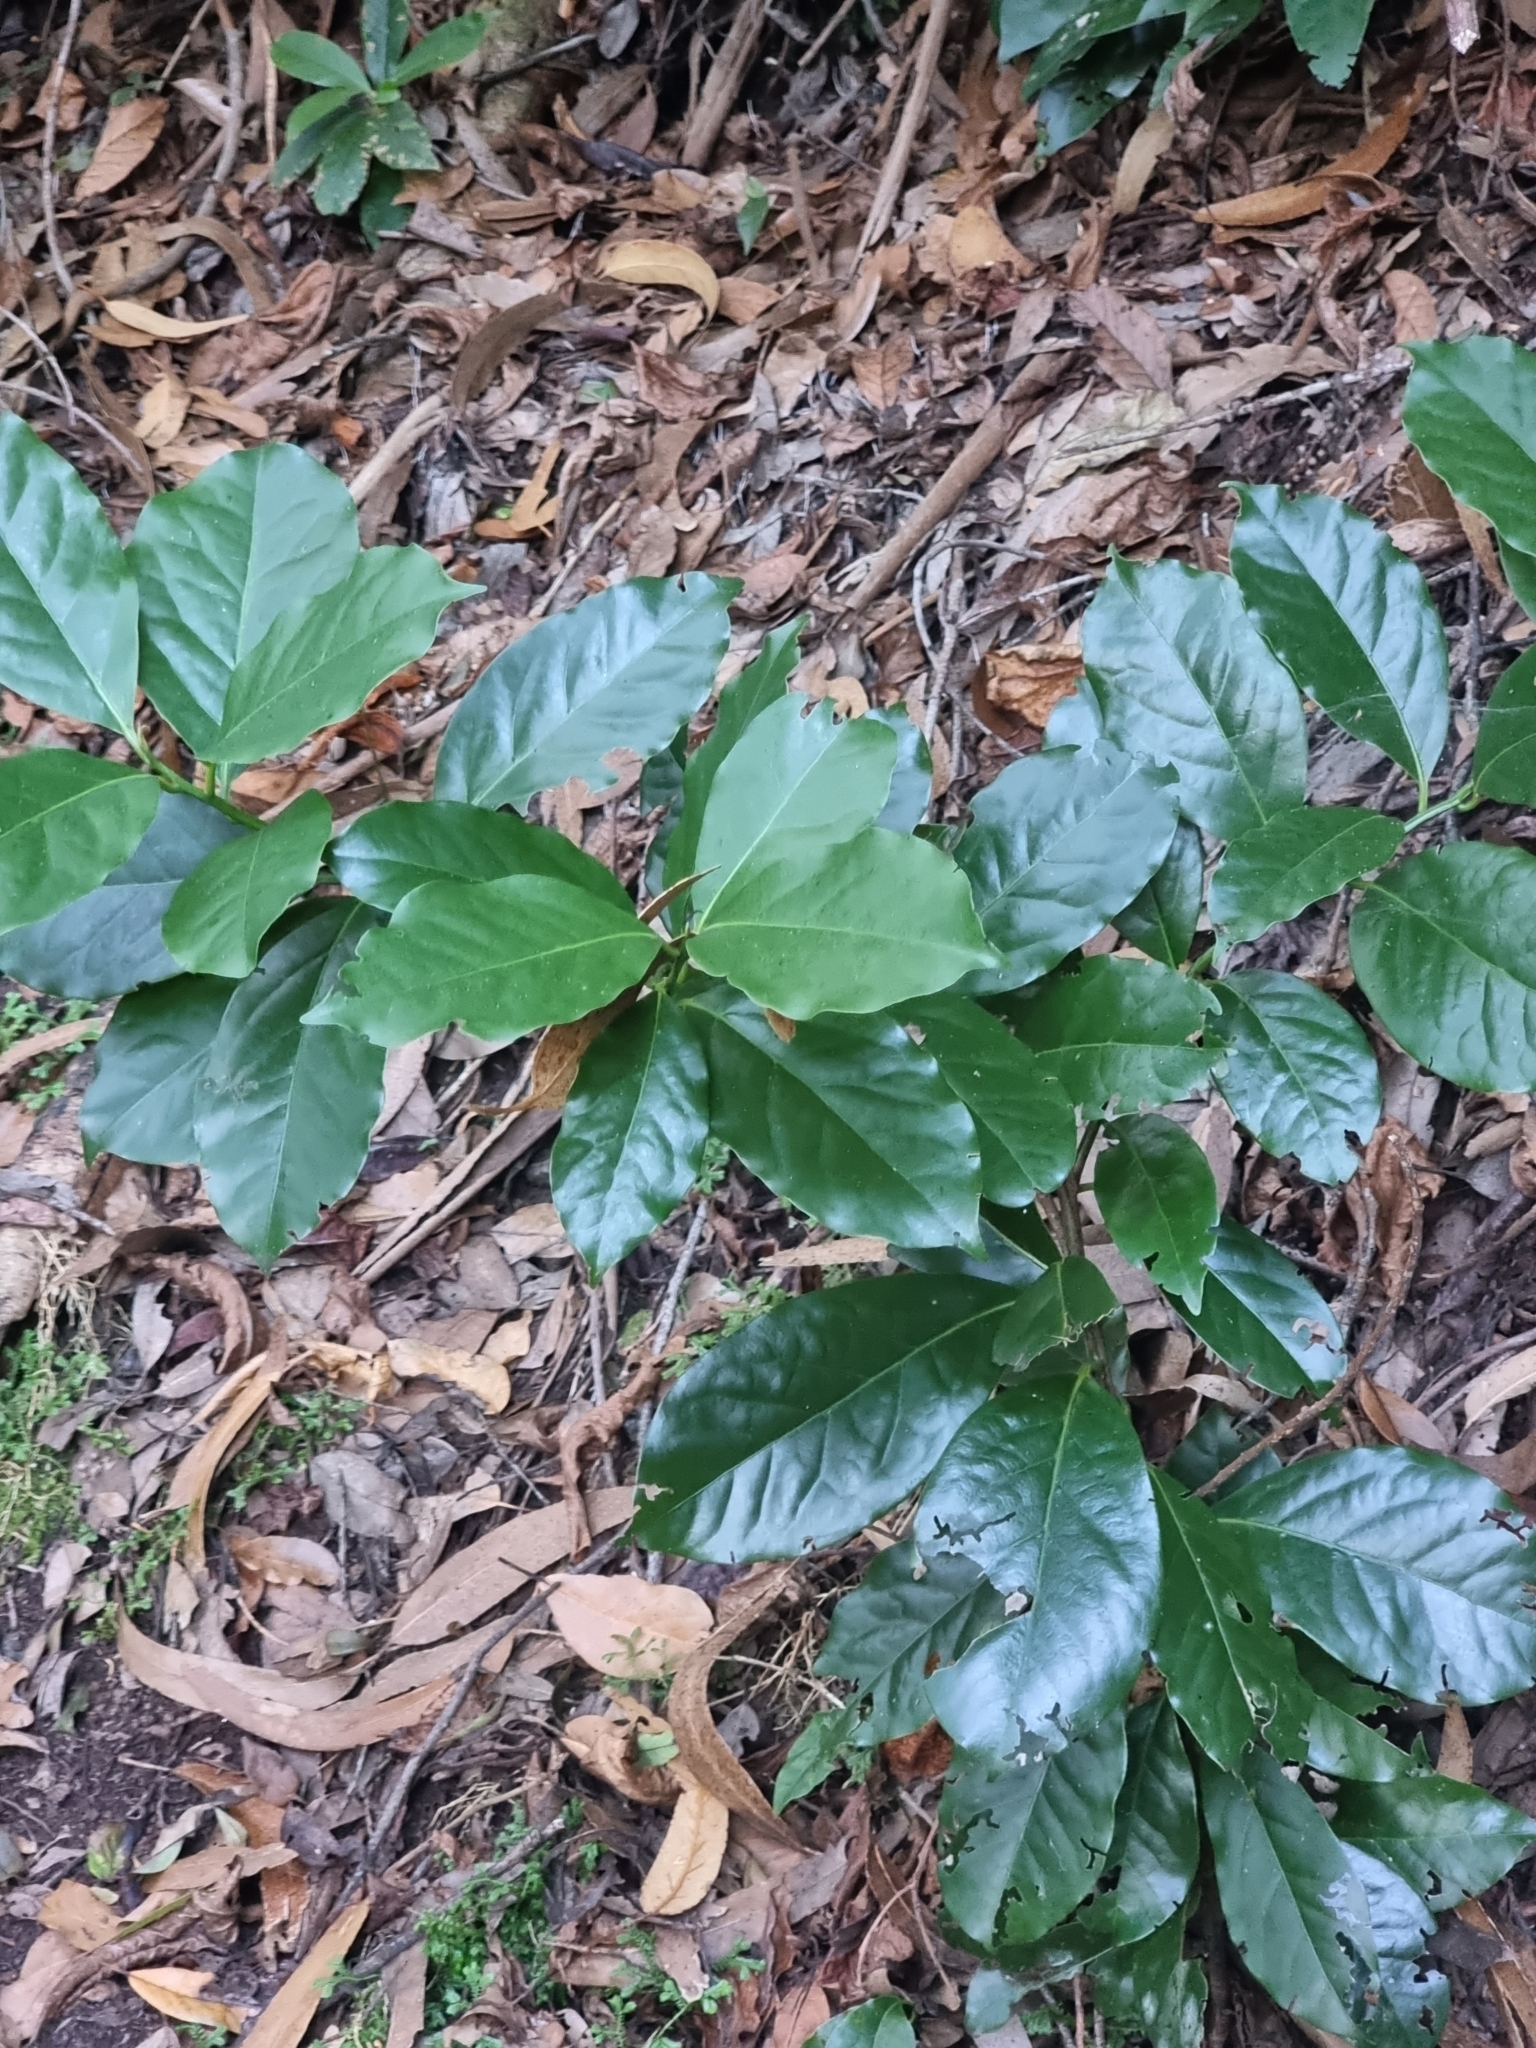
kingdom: Plantae
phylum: Tracheophyta
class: Magnoliopsida
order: Laurales
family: Lauraceae
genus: Mespilodaphne
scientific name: Mespilodaphne foetens
